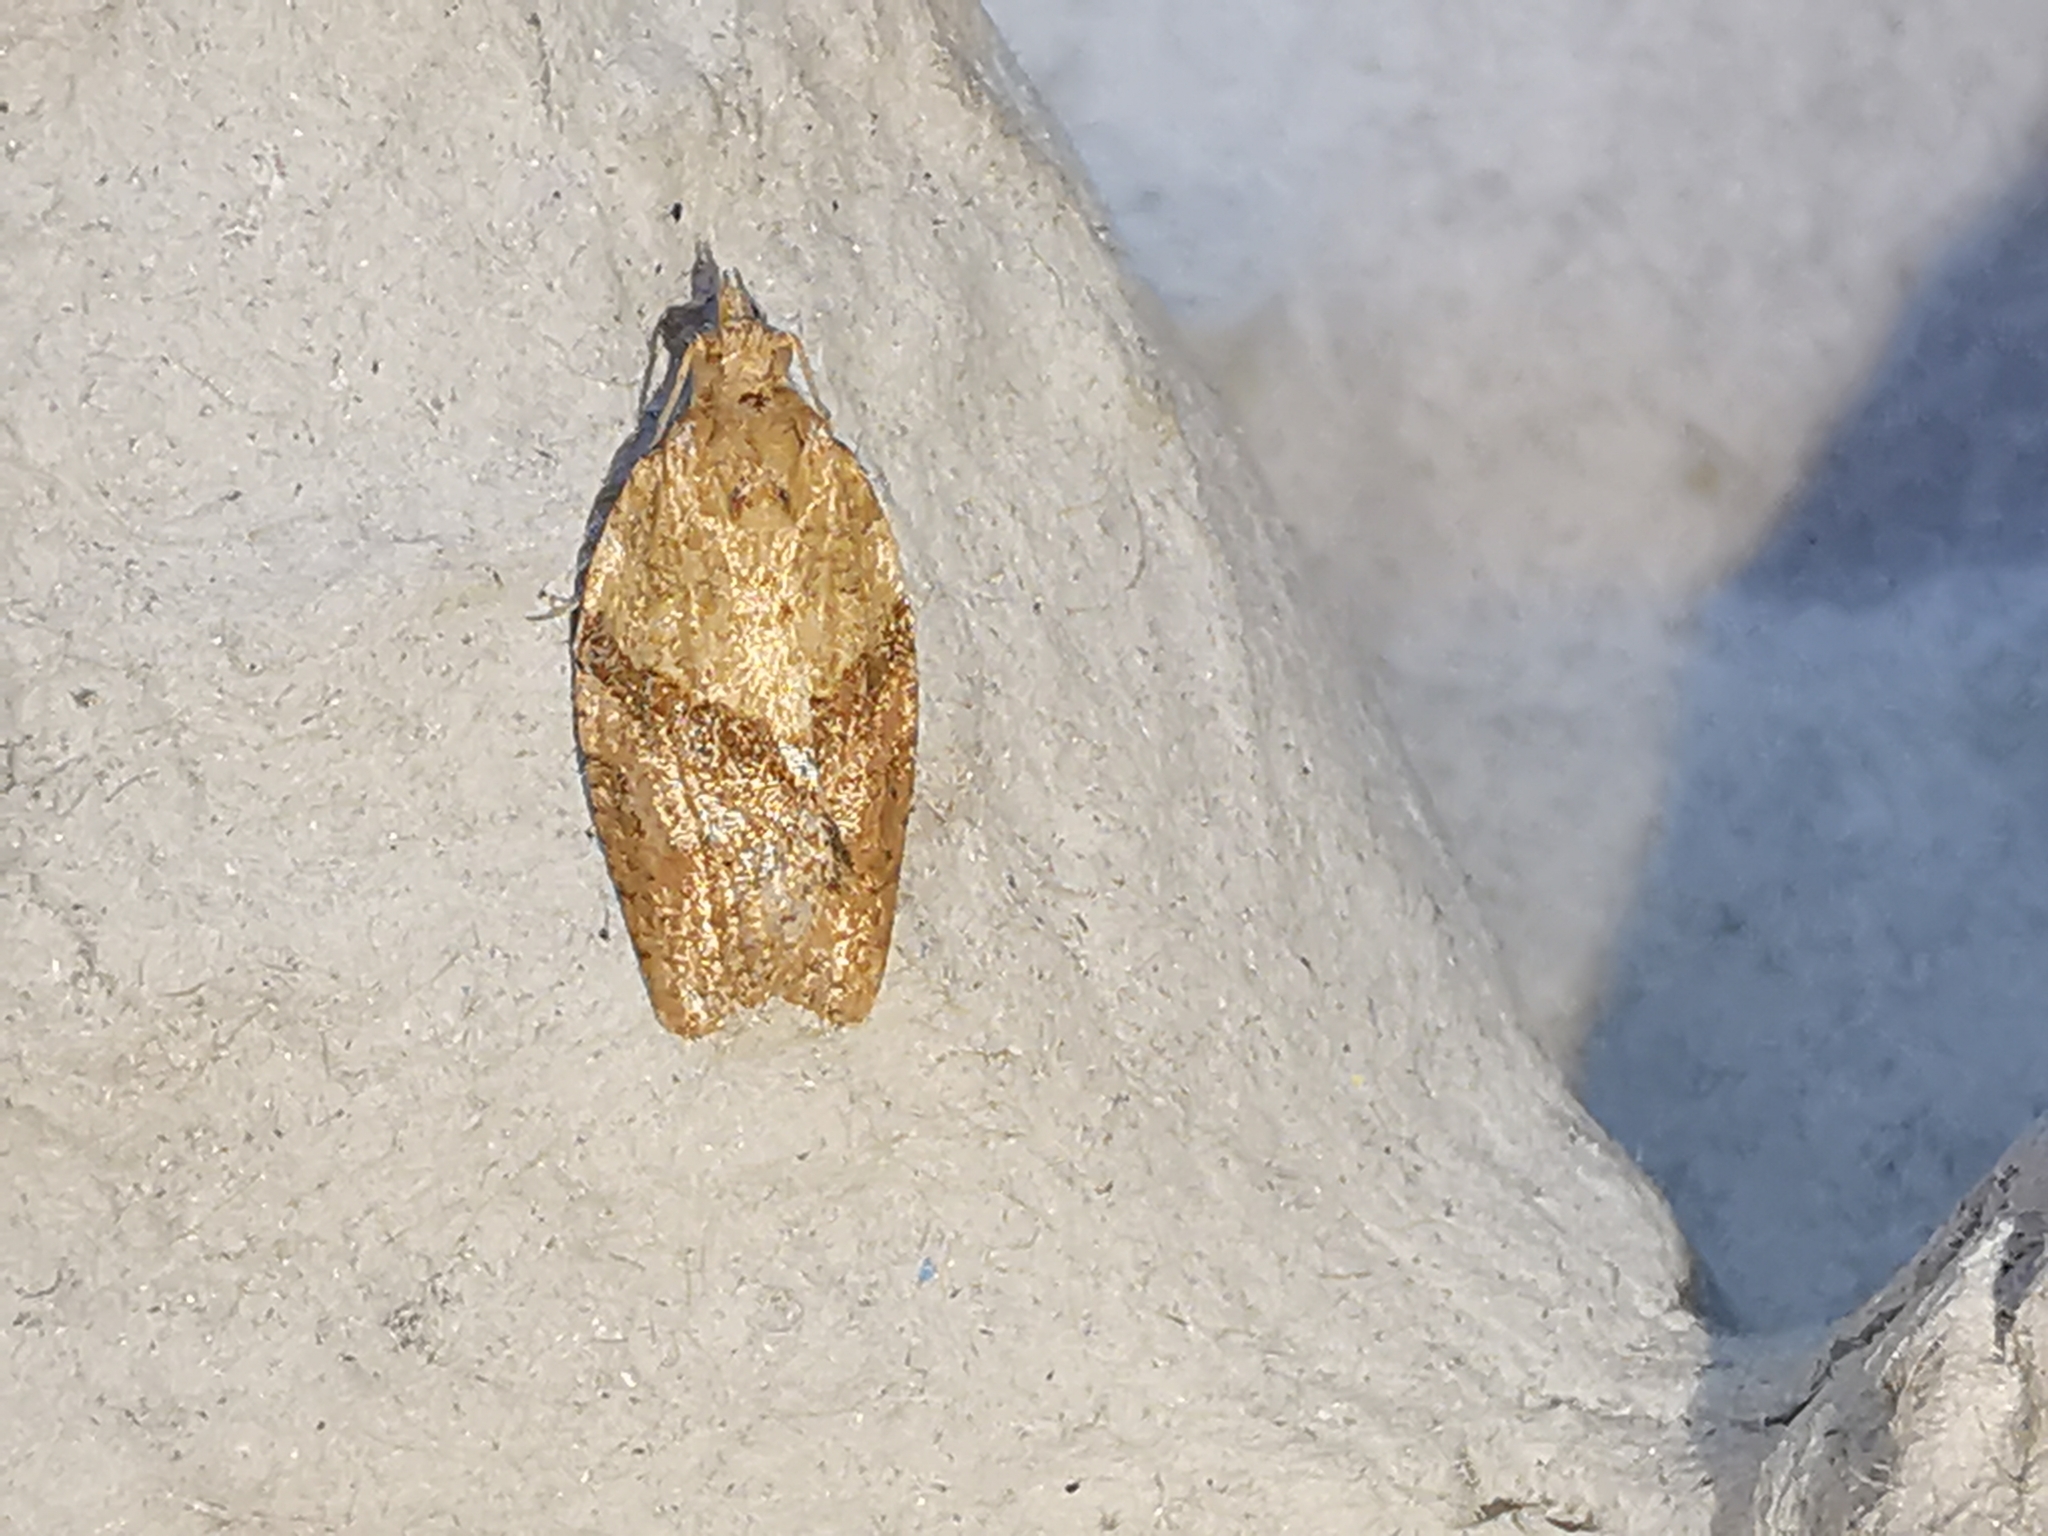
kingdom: Animalia
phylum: Arthropoda
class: Insecta
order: Lepidoptera
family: Tortricidae
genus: Epiphyas
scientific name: Epiphyas postvittana
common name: Light brown apple moth
